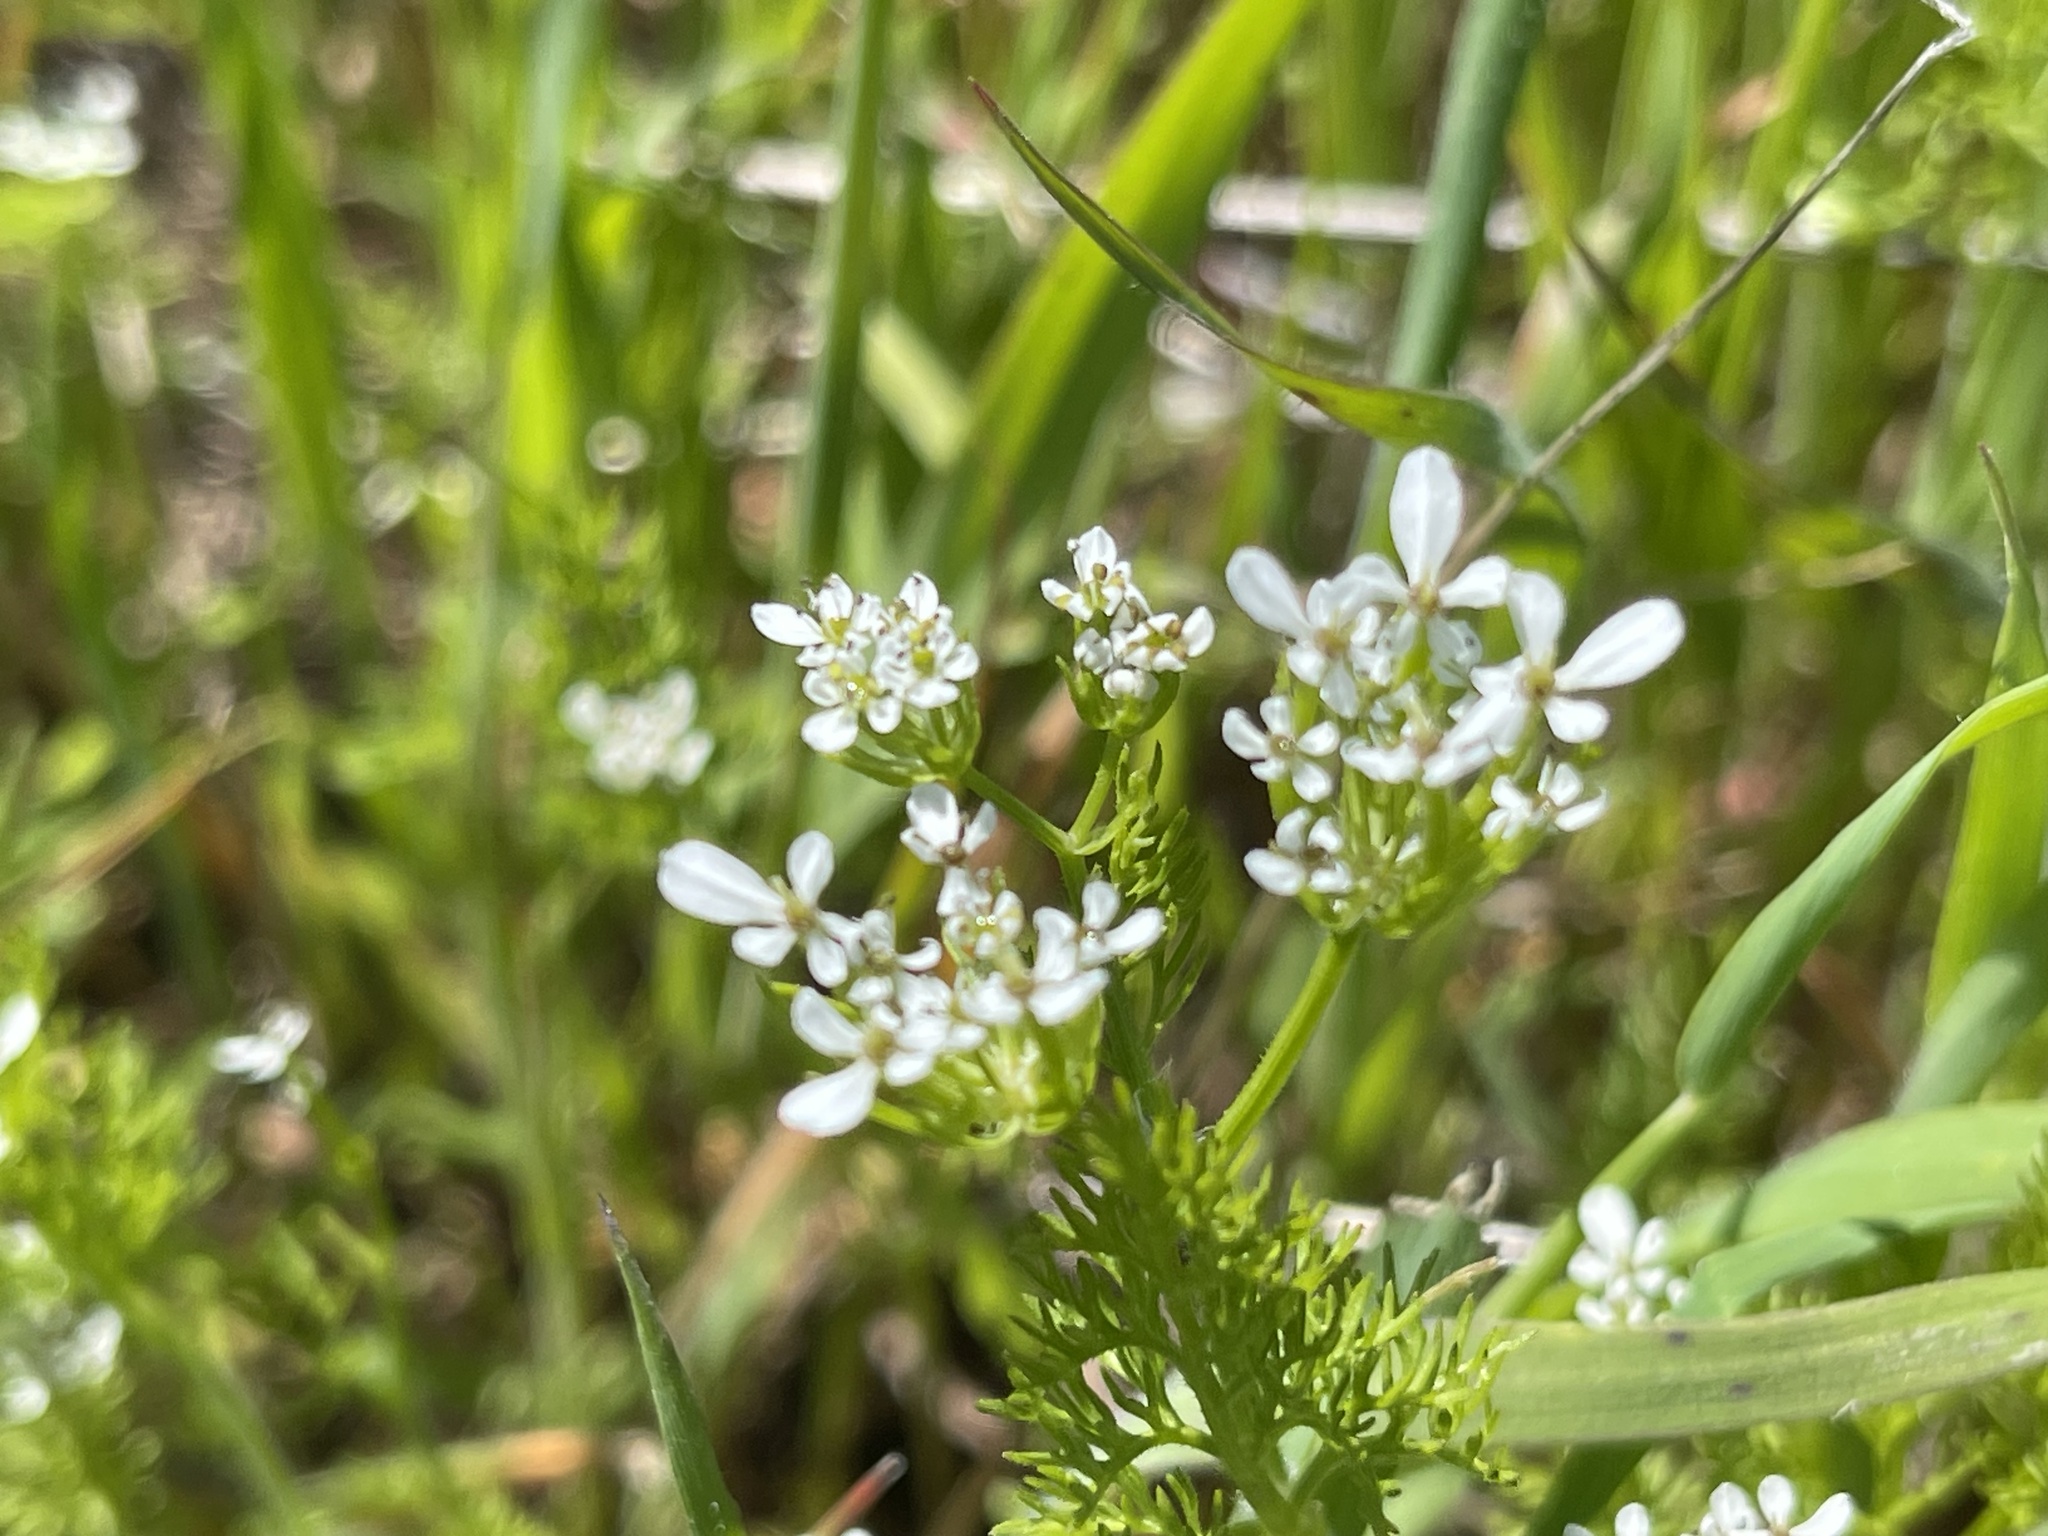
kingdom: Plantae
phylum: Tracheophyta
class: Magnoliopsida
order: Apiales
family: Apiaceae
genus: Scandix
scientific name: Scandix pecten-veneris
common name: Shepherd's-needle
